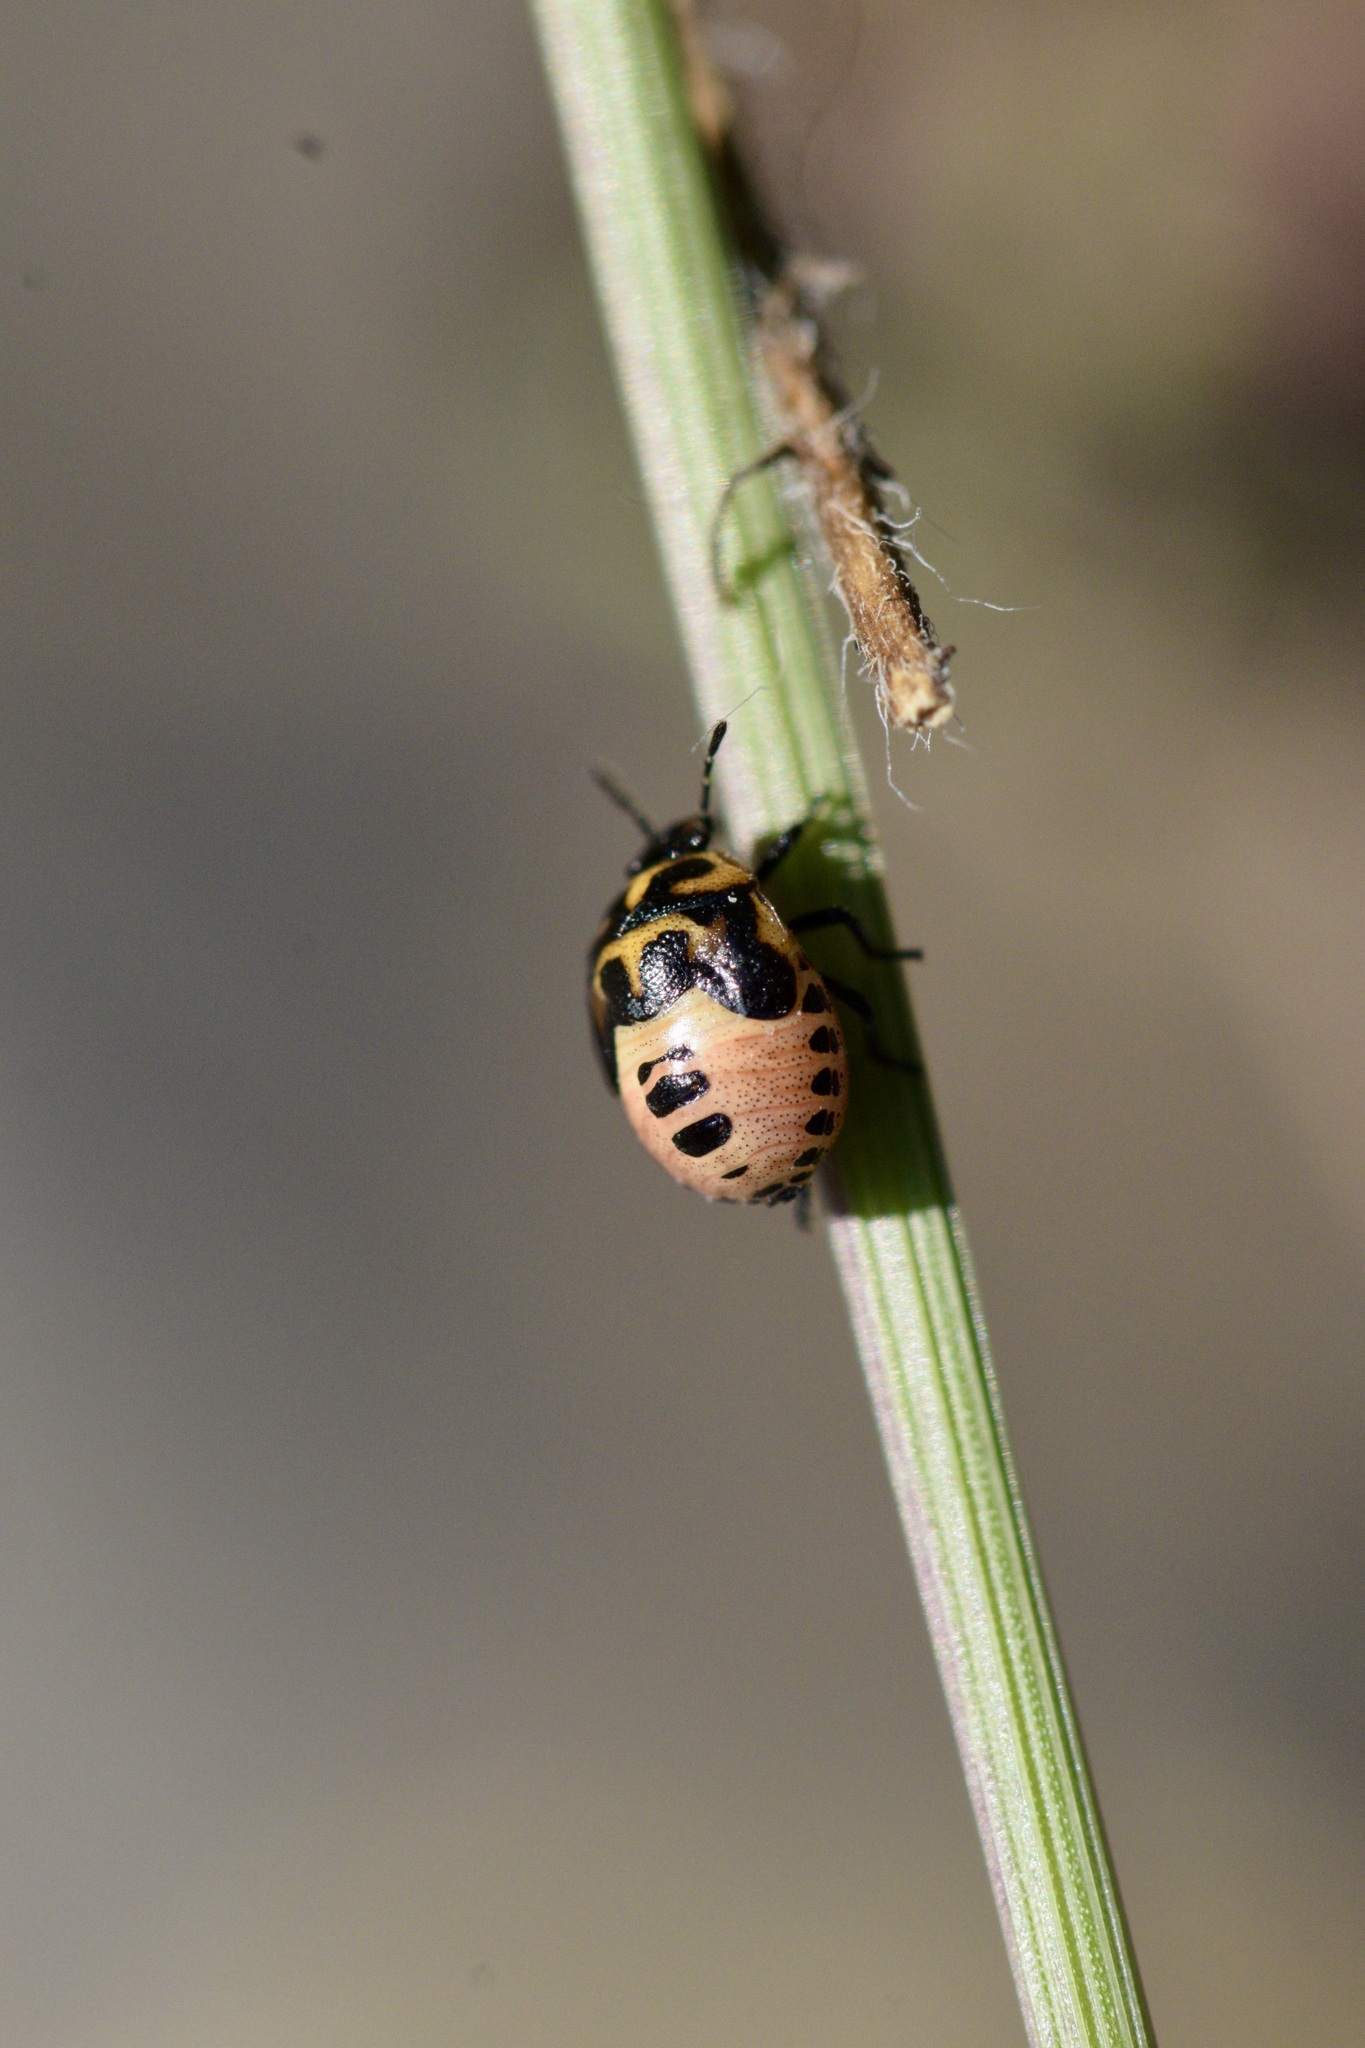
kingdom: Animalia
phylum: Arthropoda
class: Insecta
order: Hemiptera
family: Pentatomidae
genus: Cosmopepla
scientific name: Cosmopepla lintneriana
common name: Twice-stabbed stink bug
